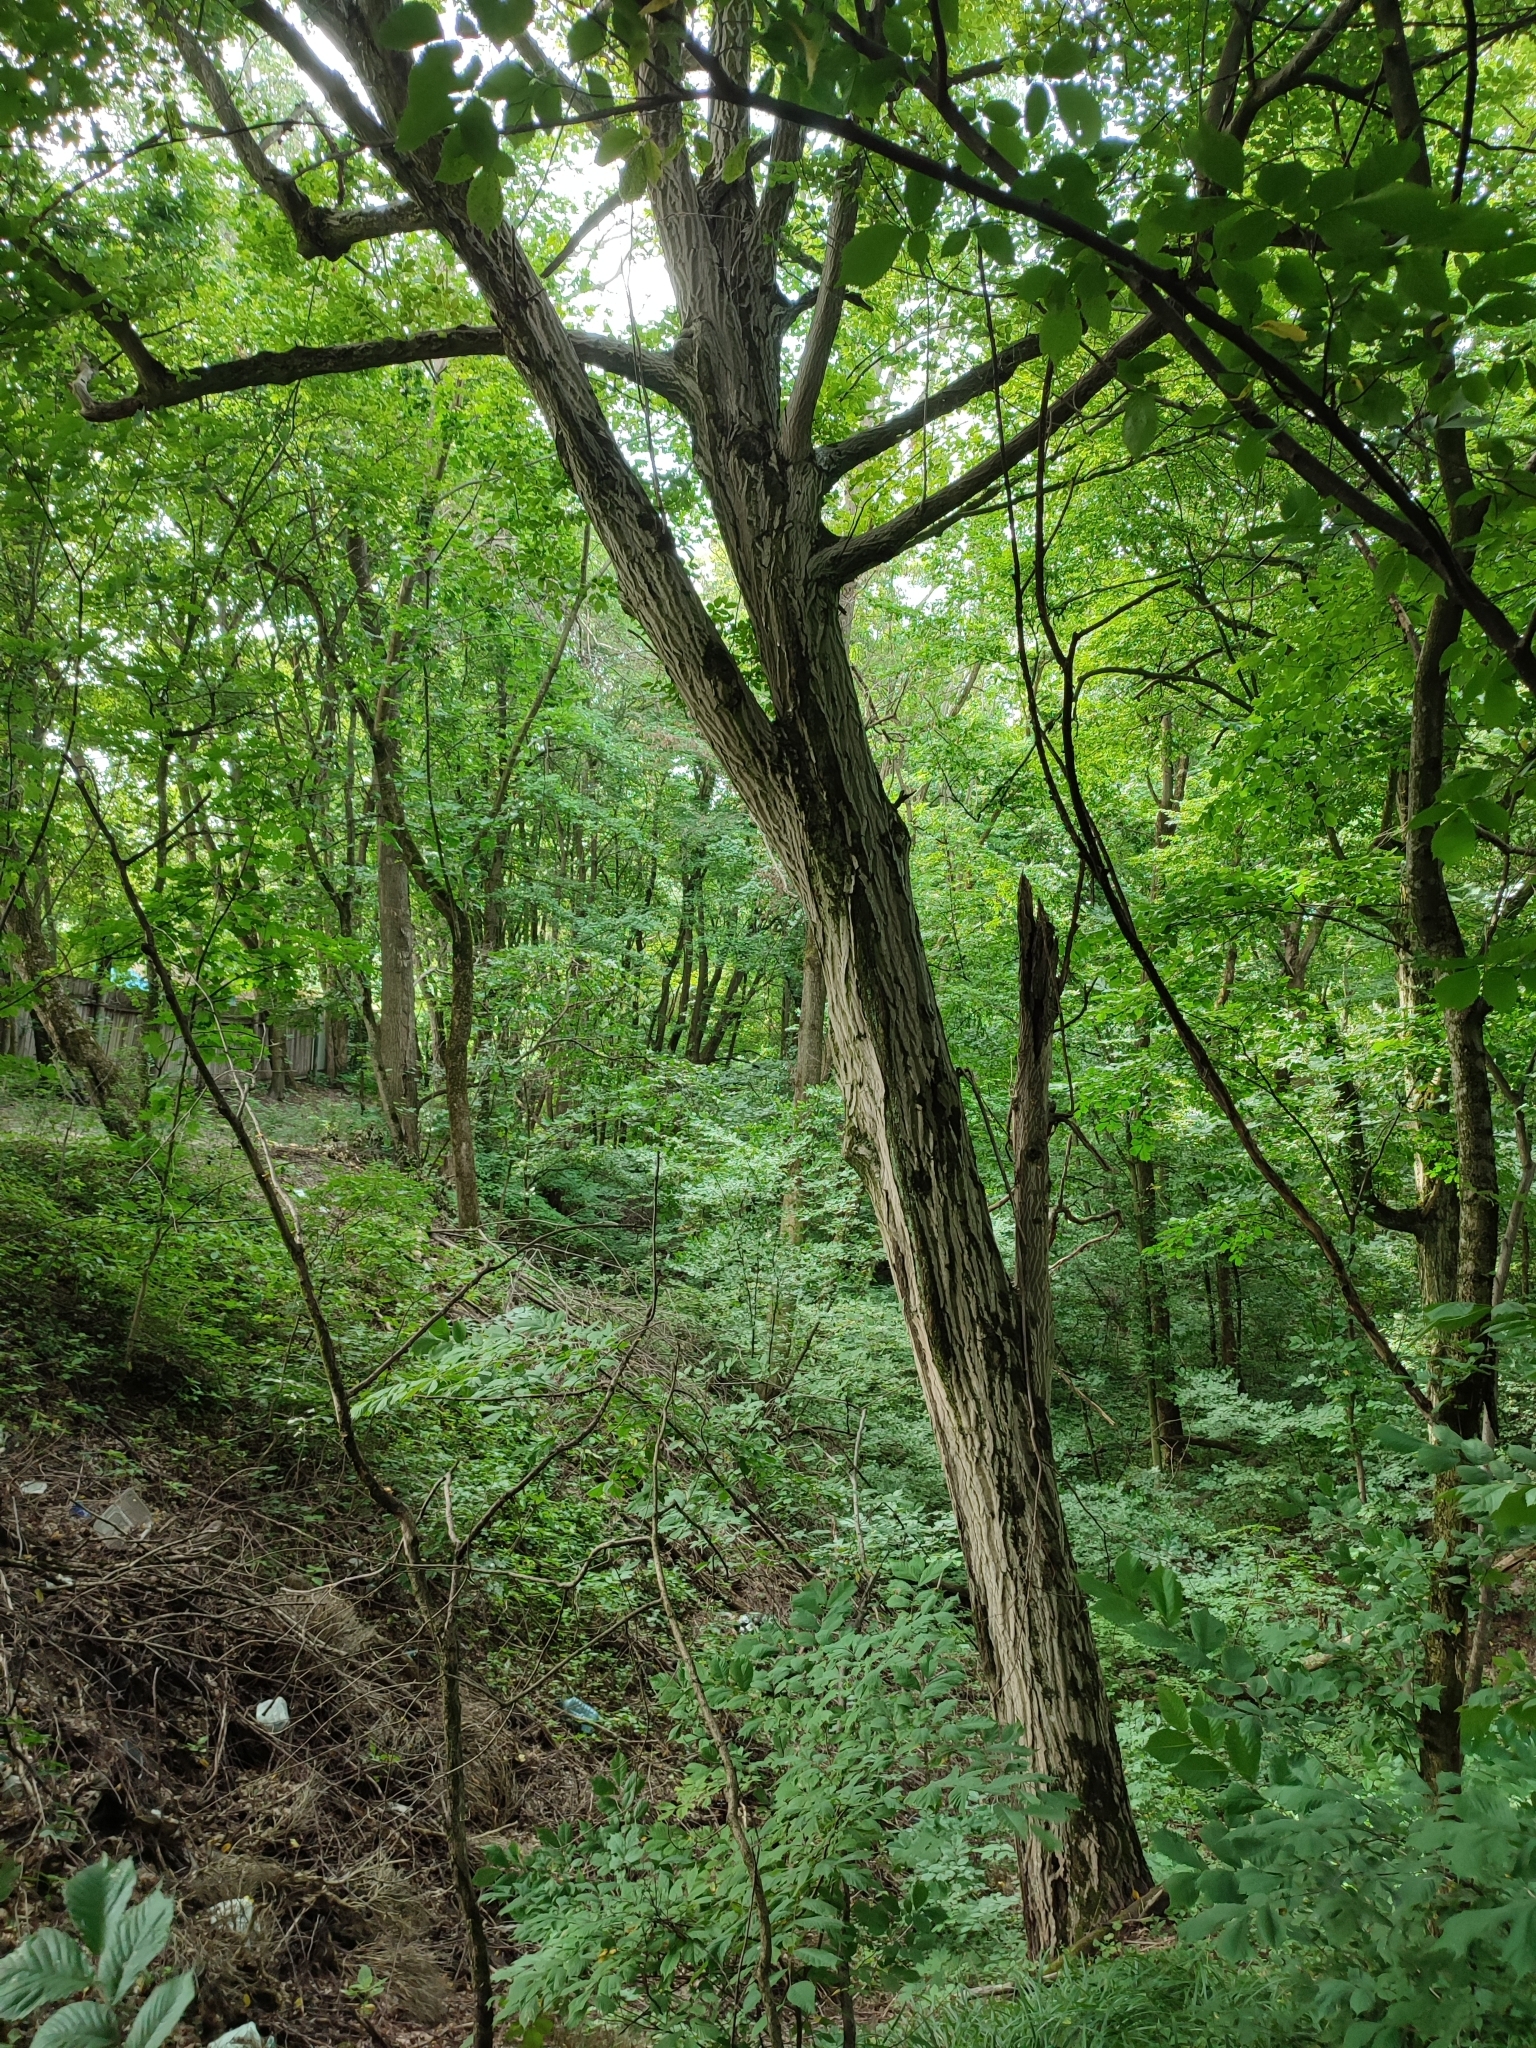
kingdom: Plantae
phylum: Tracheophyta
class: Magnoliopsida
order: Fagales
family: Betulaceae
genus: Carpinus
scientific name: Carpinus betulus
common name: Hornbeam
